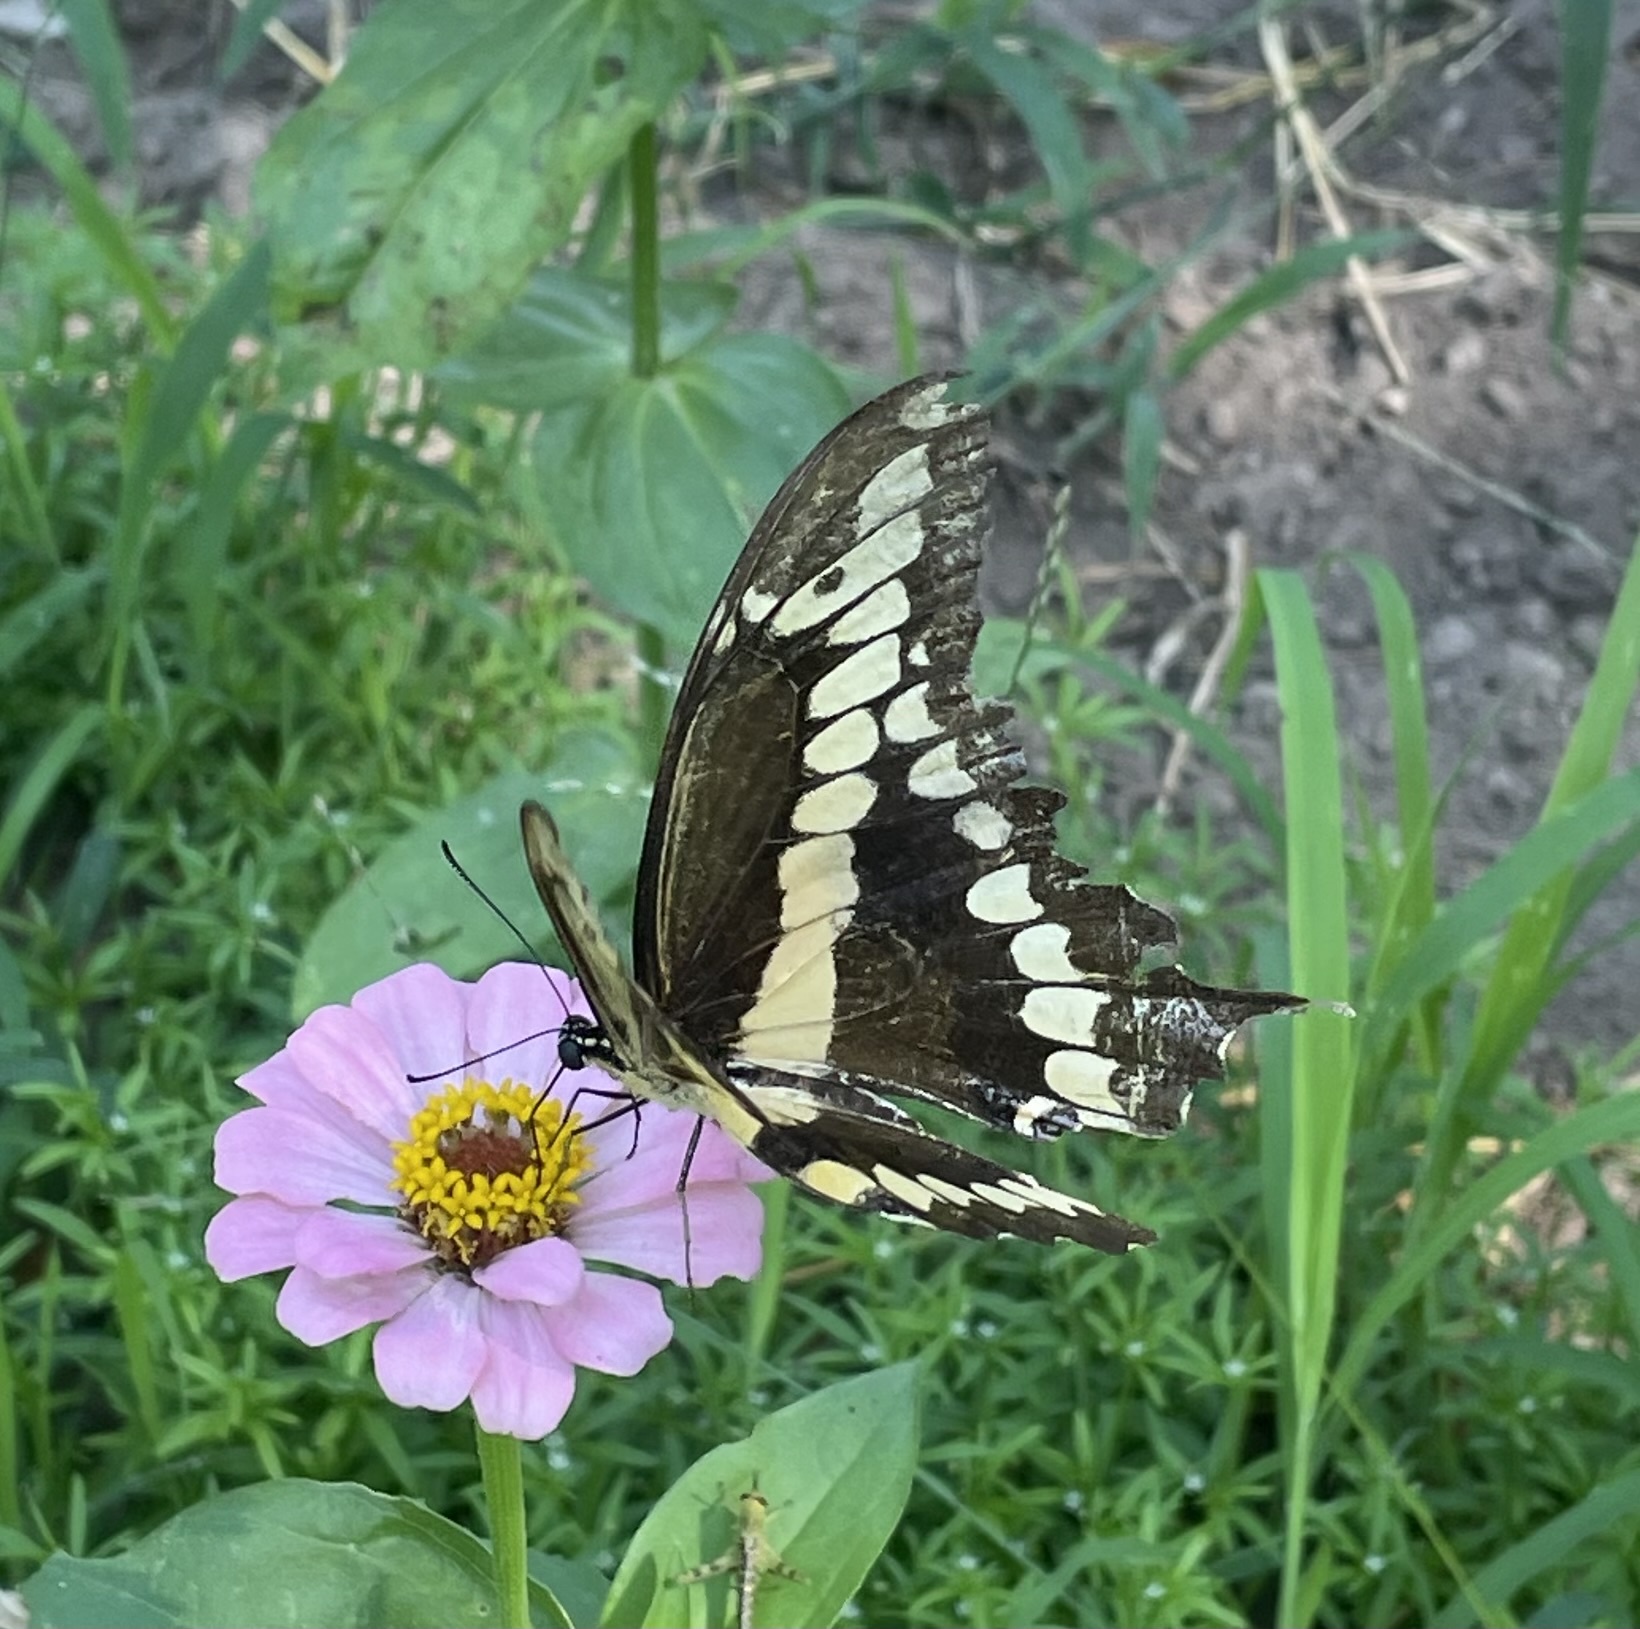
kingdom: Animalia
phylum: Arthropoda
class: Insecta
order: Lepidoptera
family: Papilionidae
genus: Papilio
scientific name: Papilio cresphontes
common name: Giant swallowtail
